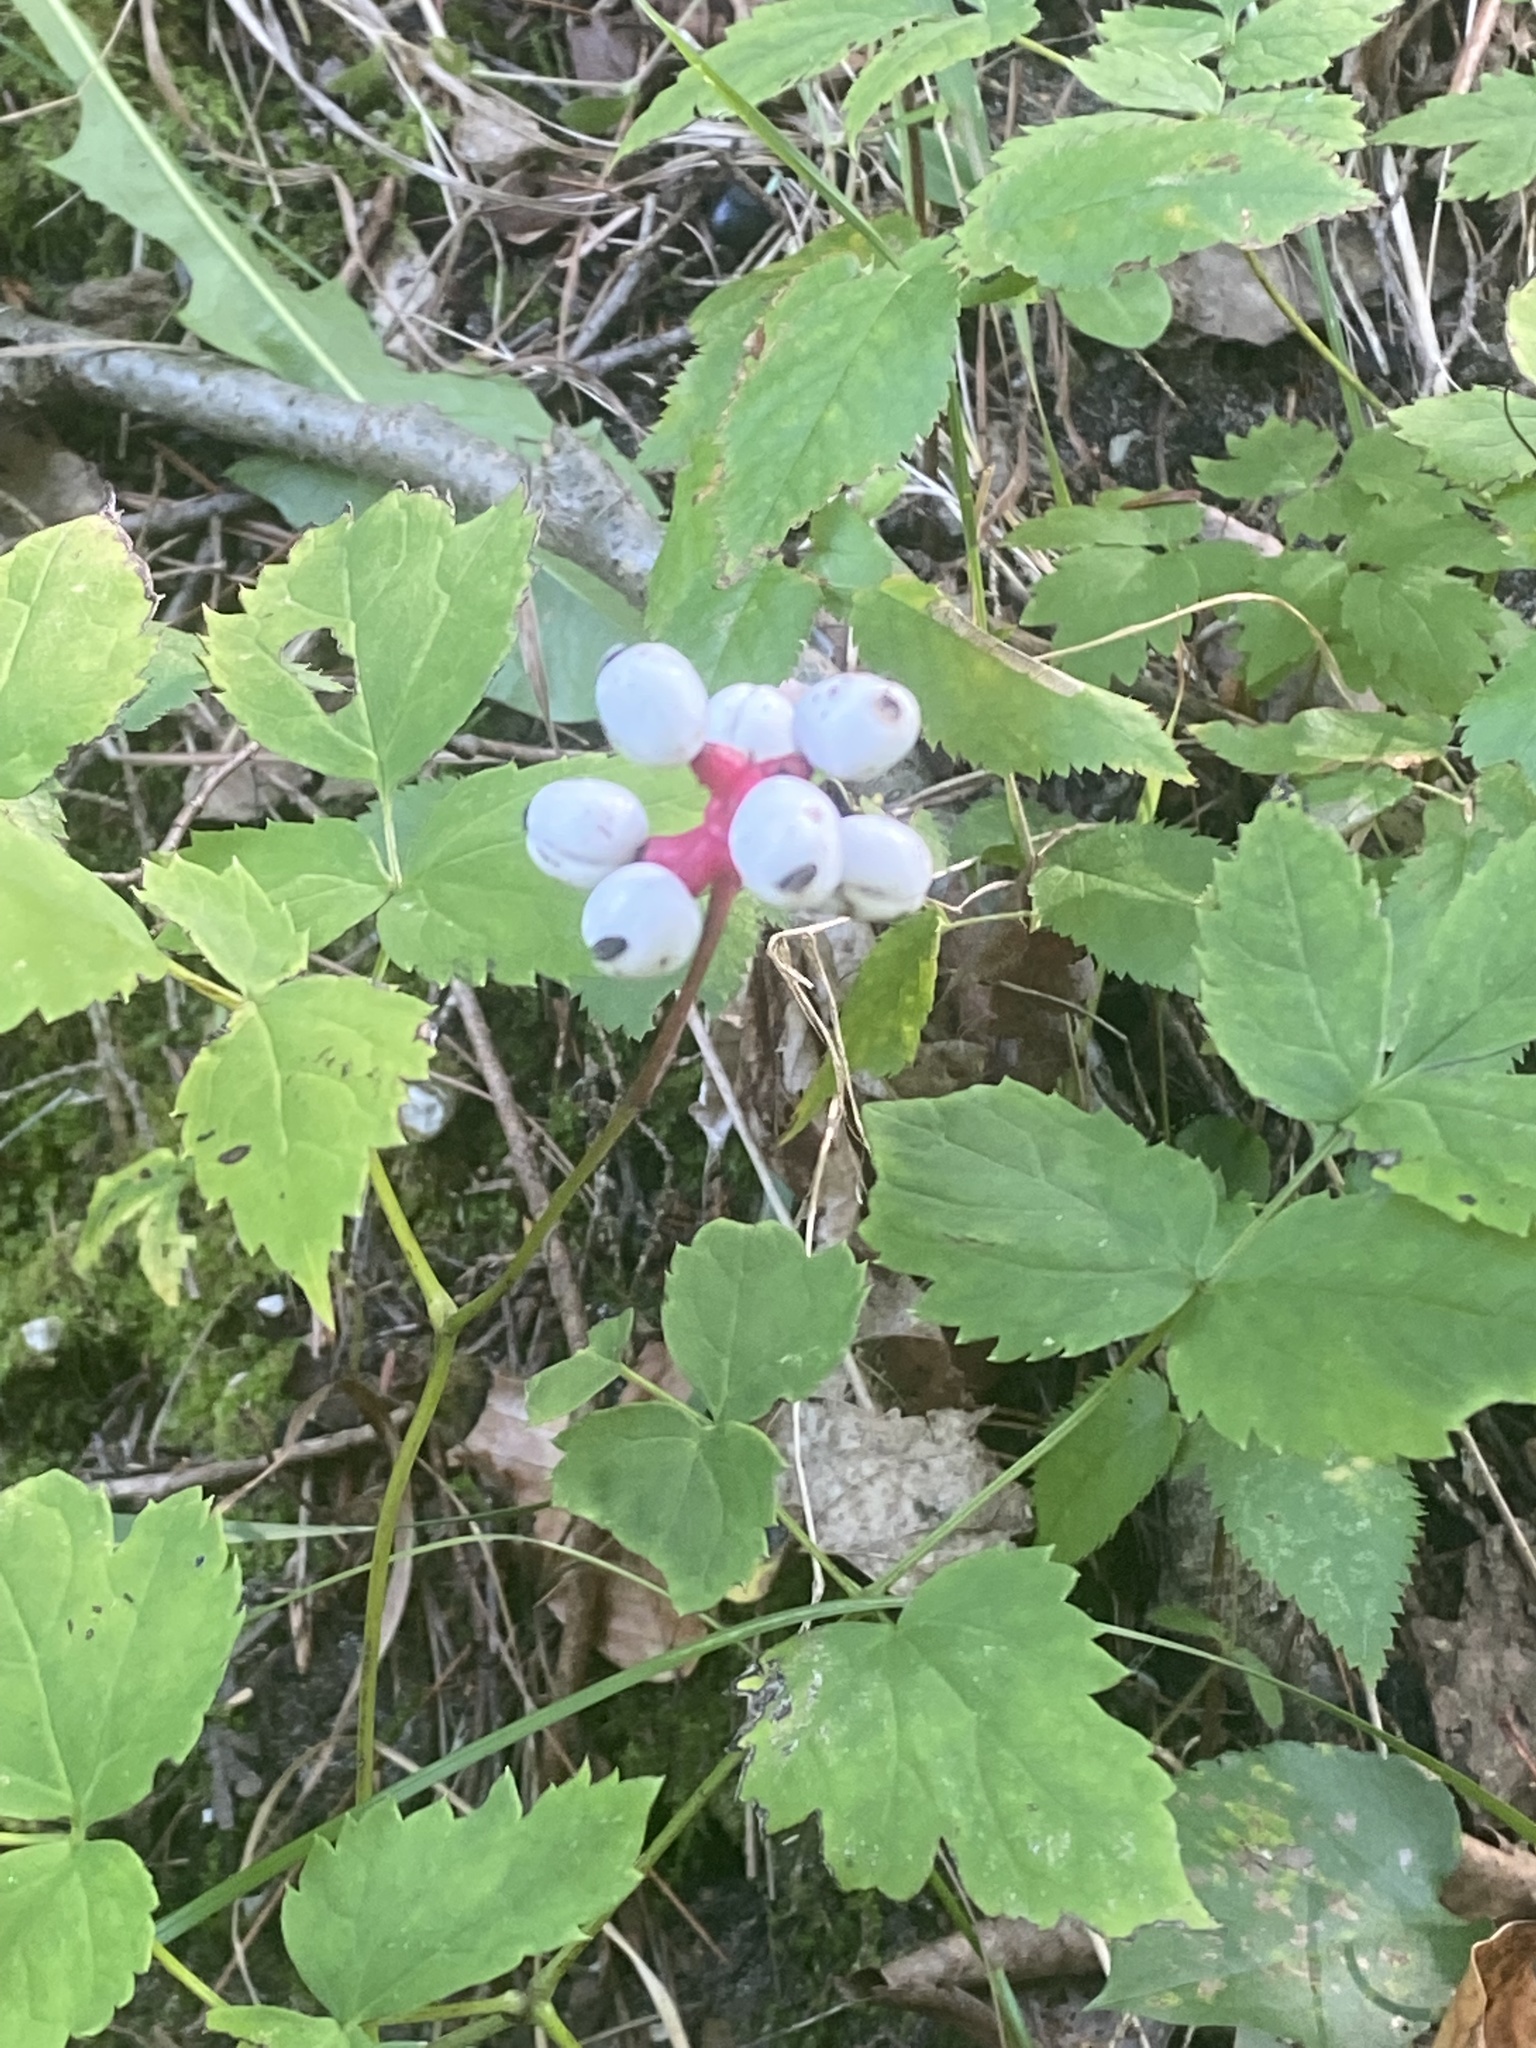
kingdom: Plantae
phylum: Tracheophyta
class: Magnoliopsida
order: Ranunculales
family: Ranunculaceae
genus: Actaea
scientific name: Actaea pachypoda
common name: Doll's-eyes
